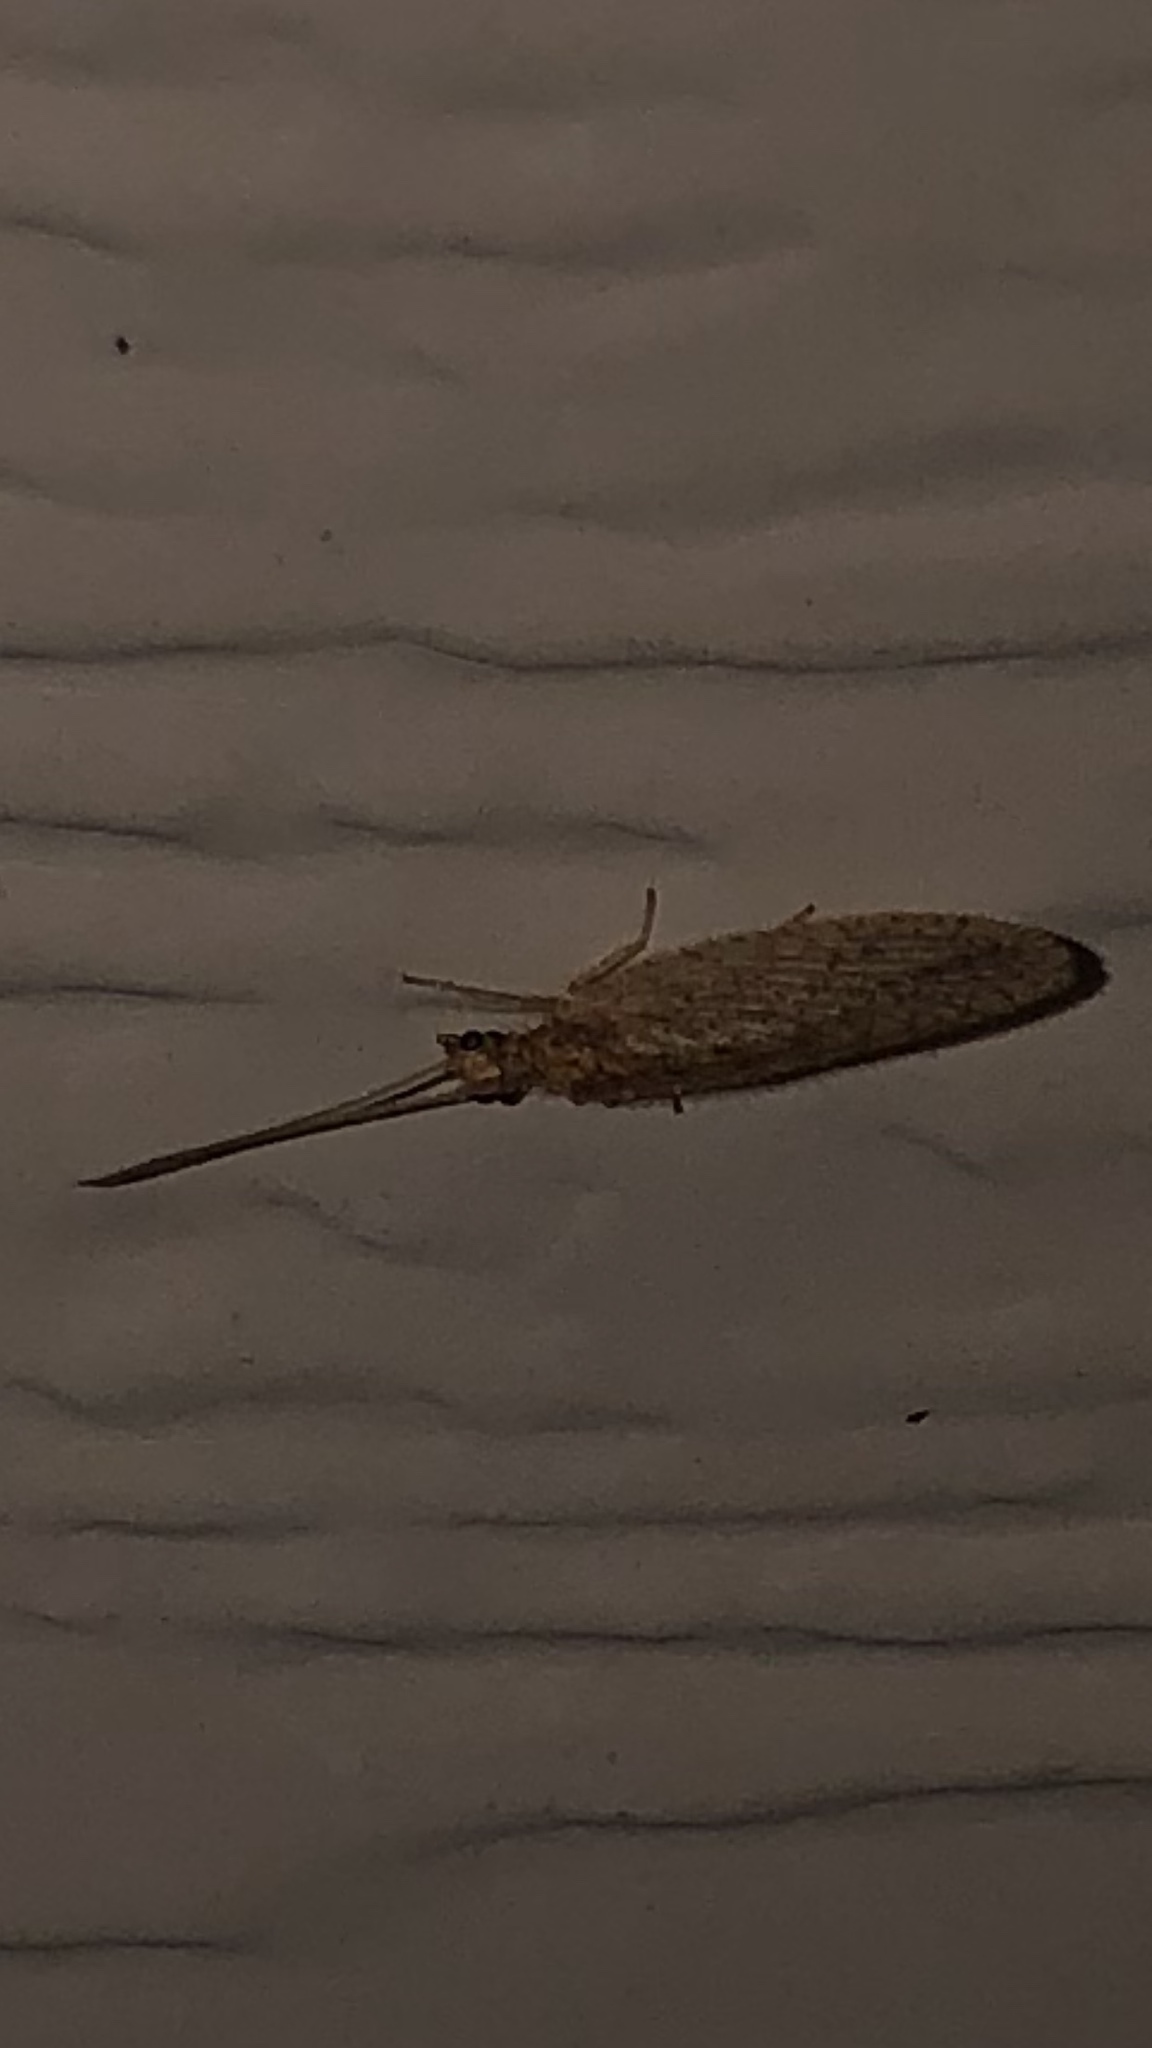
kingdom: Animalia
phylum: Arthropoda
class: Insecta
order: Neuroptera
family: Hemerobiidae
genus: Micromus
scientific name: Micromus subanticus
